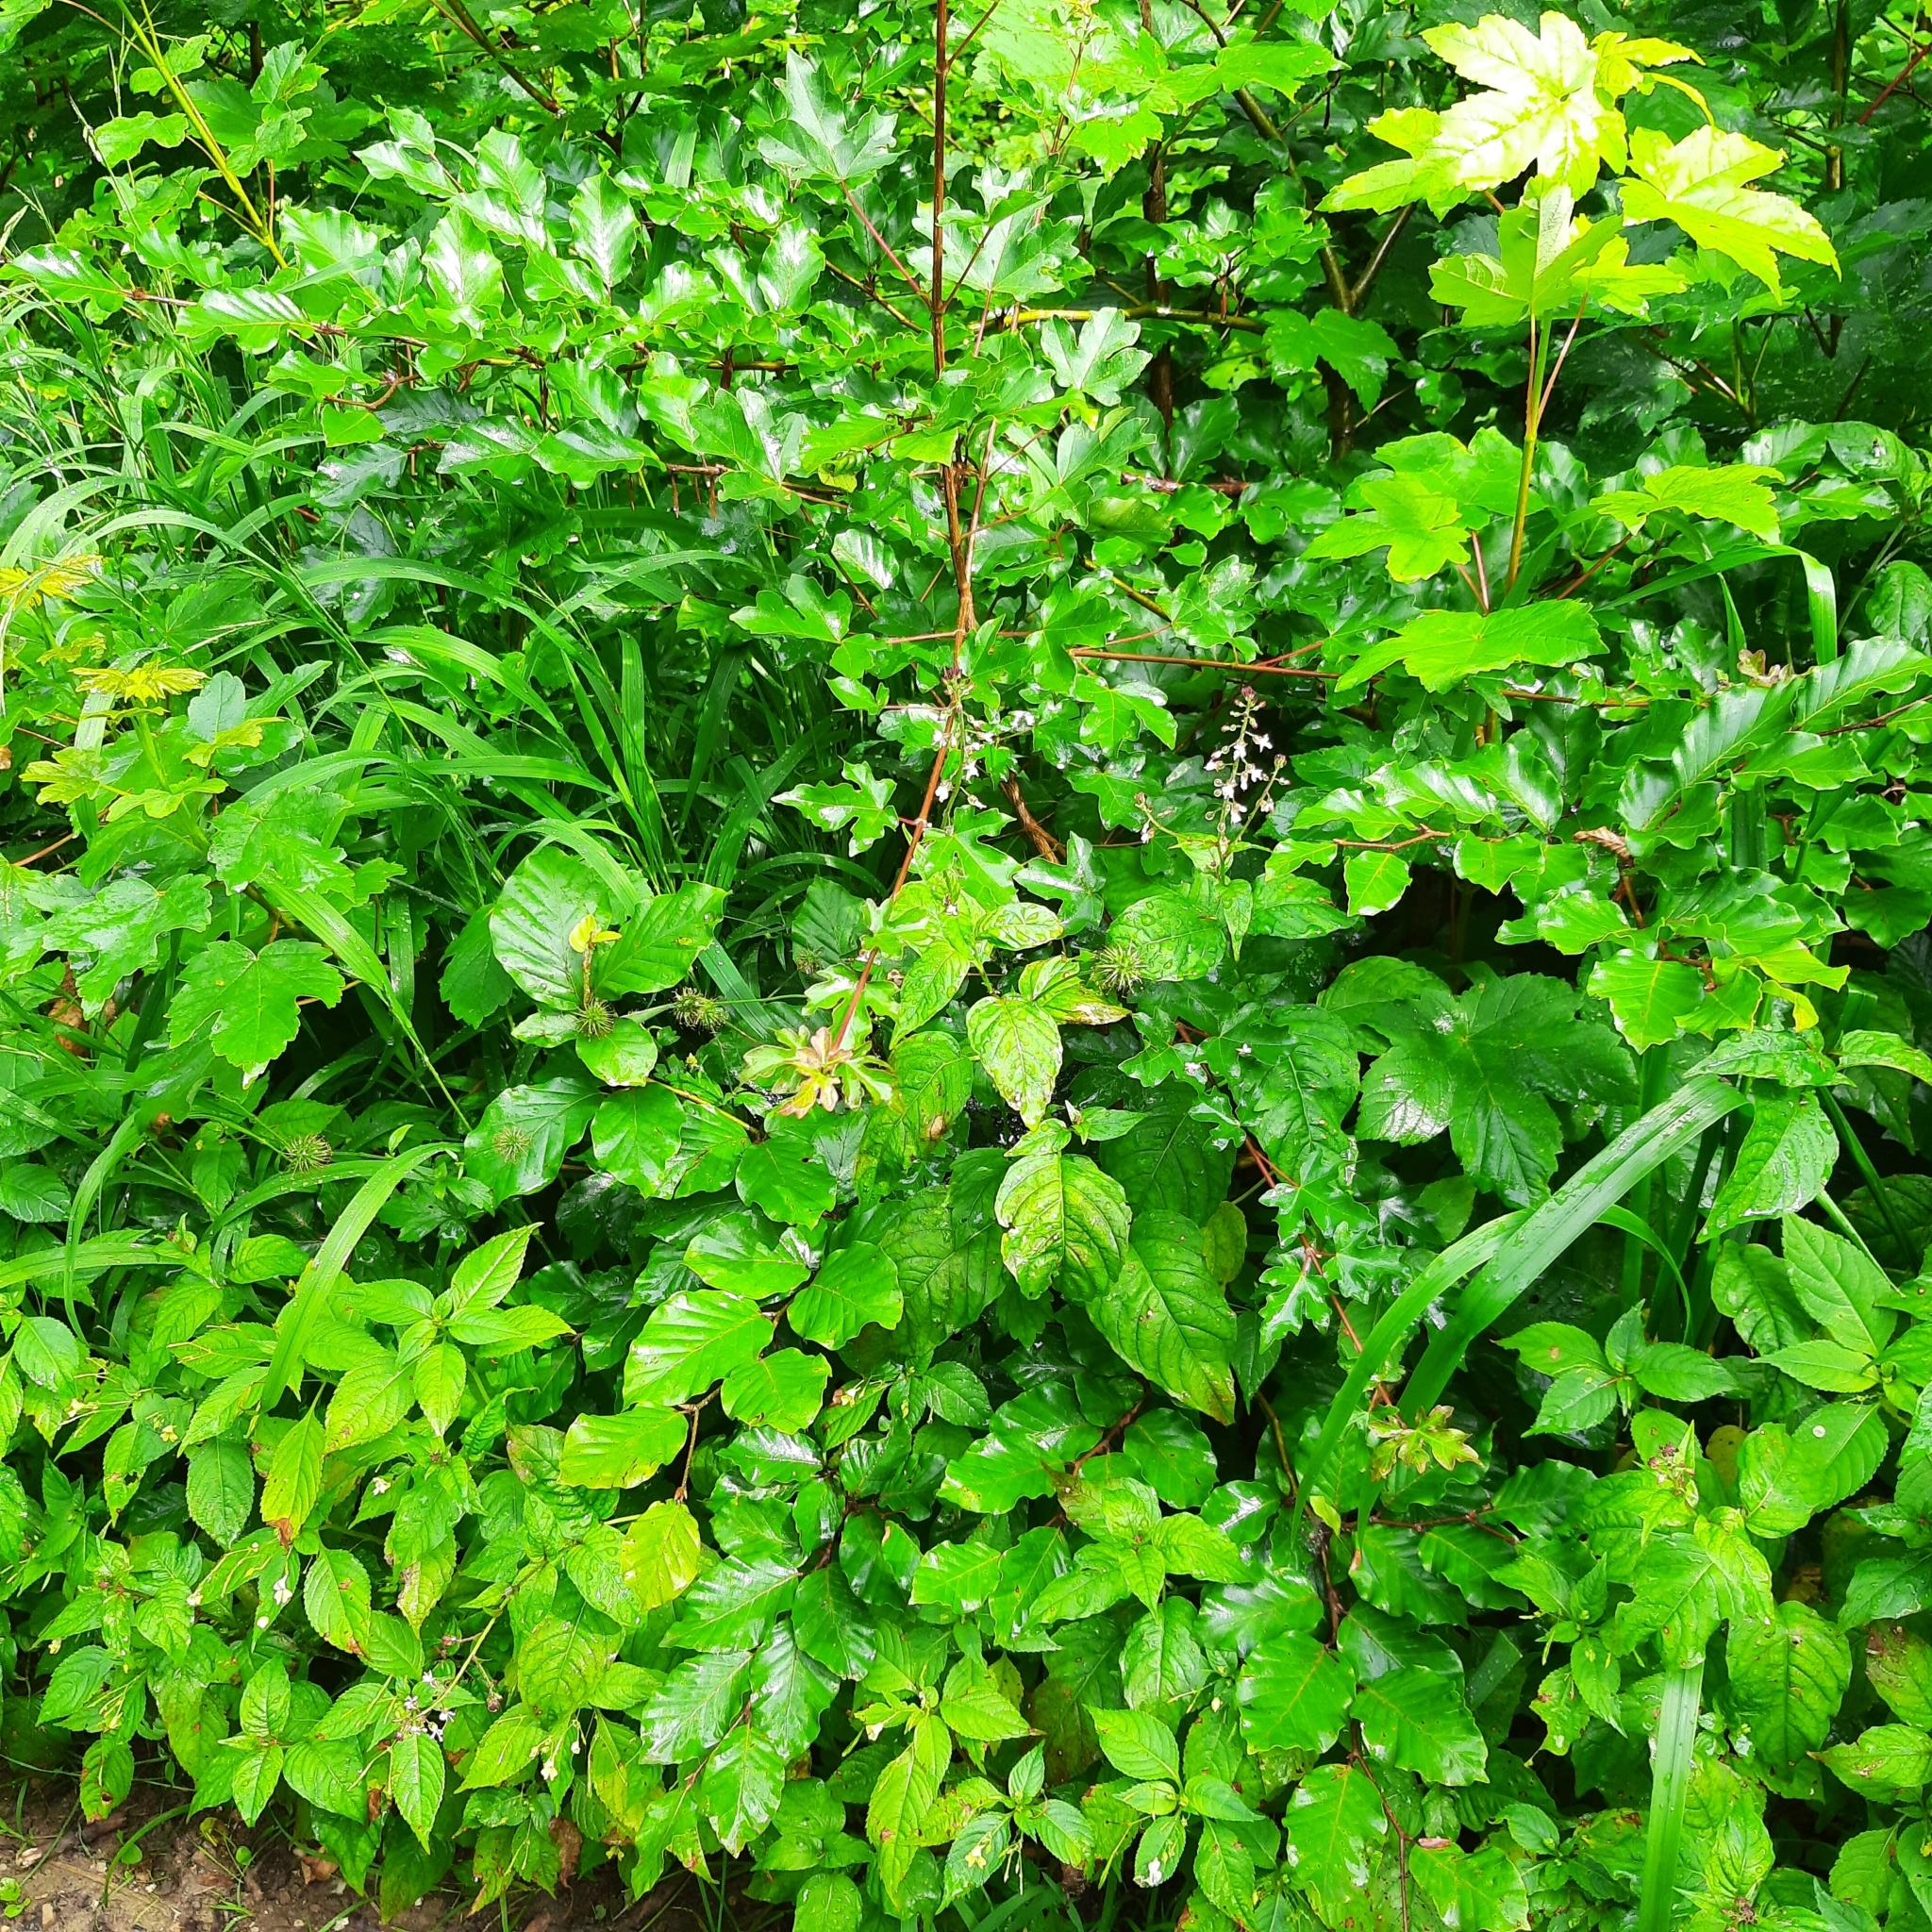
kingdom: Plantae
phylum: Tracheophyta
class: Magnoliopsida
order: Myrtales
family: Onagraceae
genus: Circaea
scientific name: Circaea lutetiana
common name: Enchanter's-nightshade
